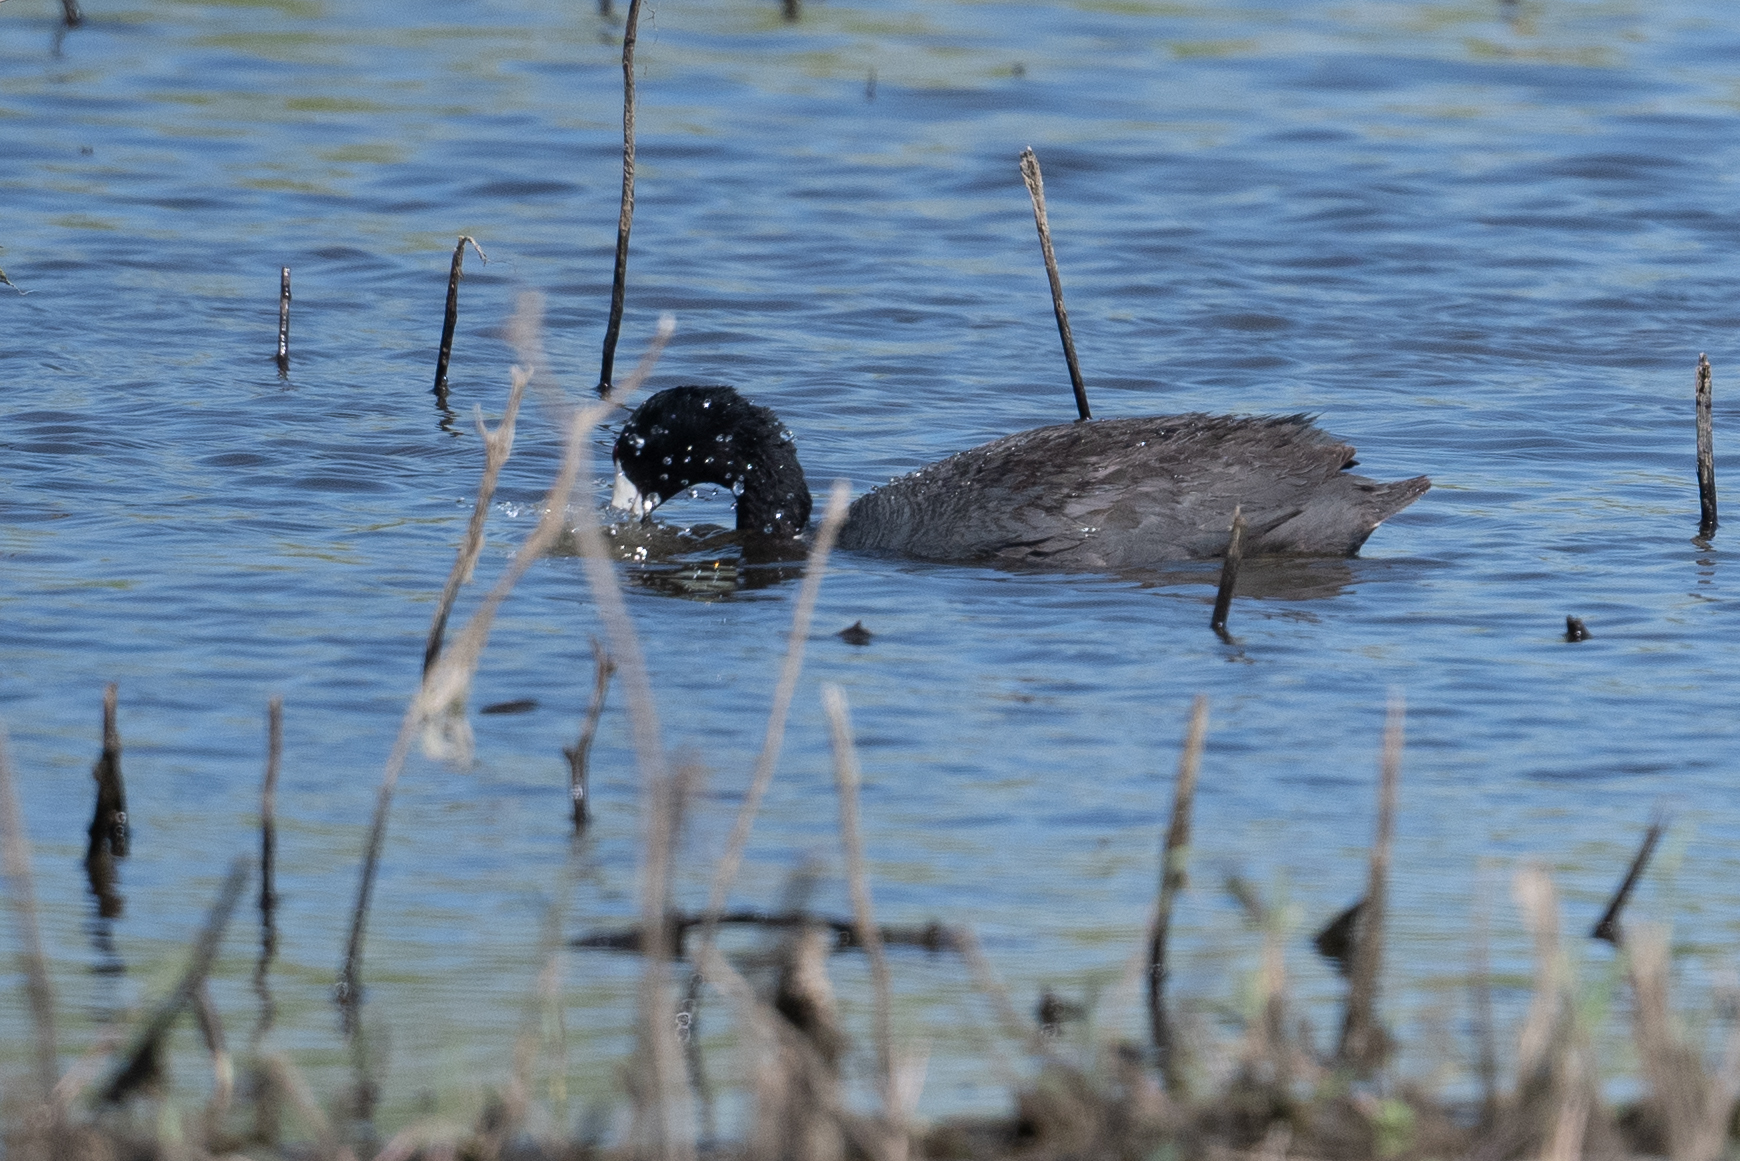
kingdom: Animalia
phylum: Chordata
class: Aves
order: Gruiformes
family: Rallidae
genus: Fulica
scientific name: Fulica americana
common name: American coot
